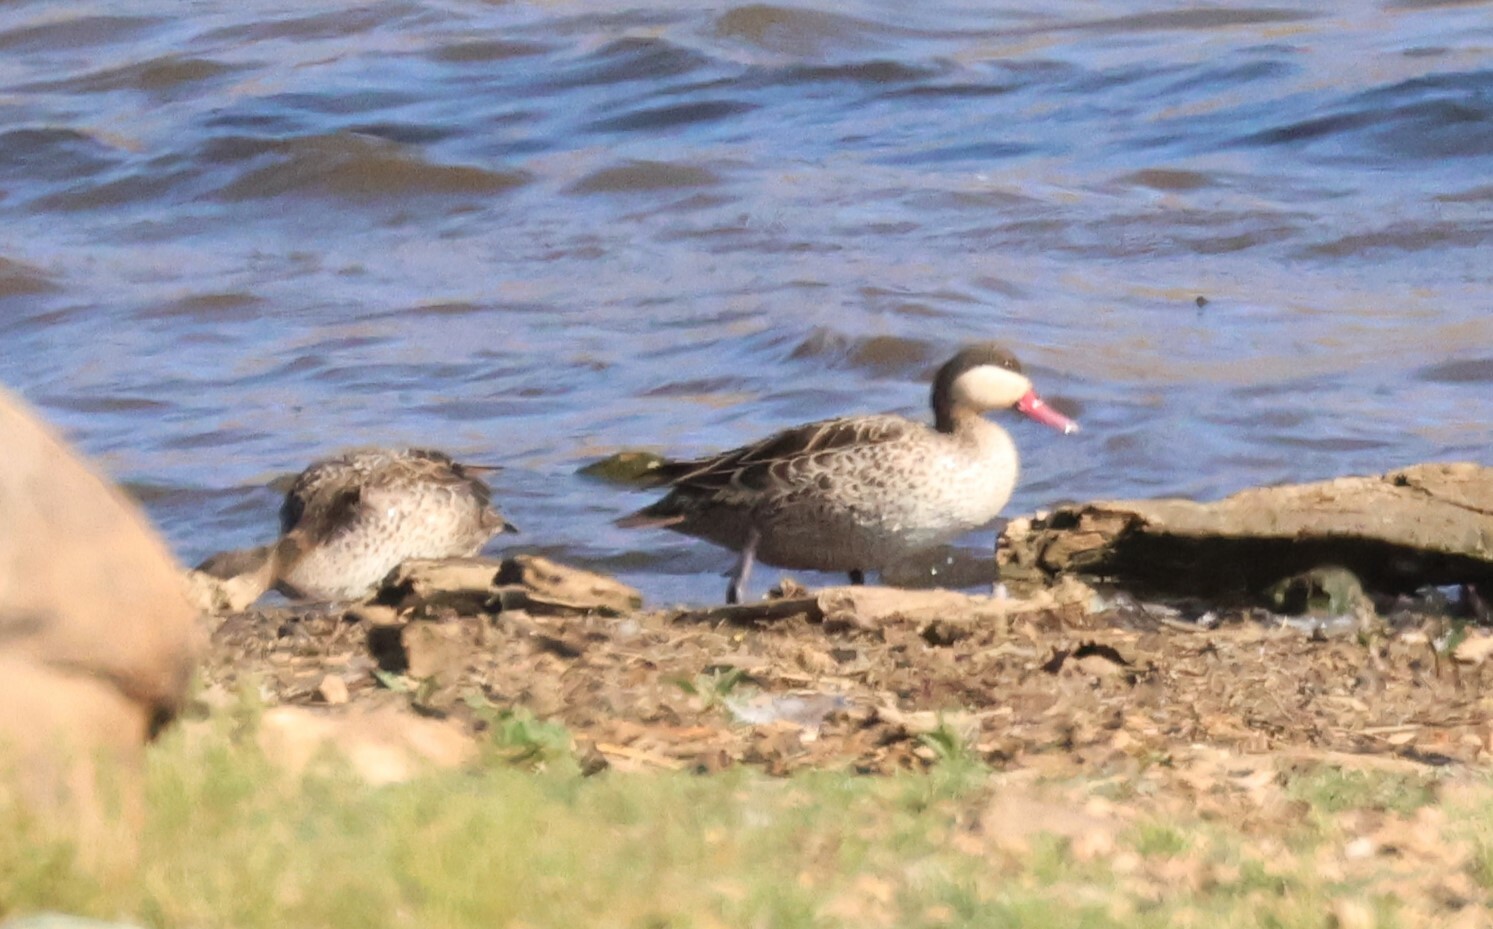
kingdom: Animalia
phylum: Chordata
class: Aves
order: Anseriformes
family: Anatidae
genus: Anas
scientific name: Anas erythrorhyncha
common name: Red-billed teal
